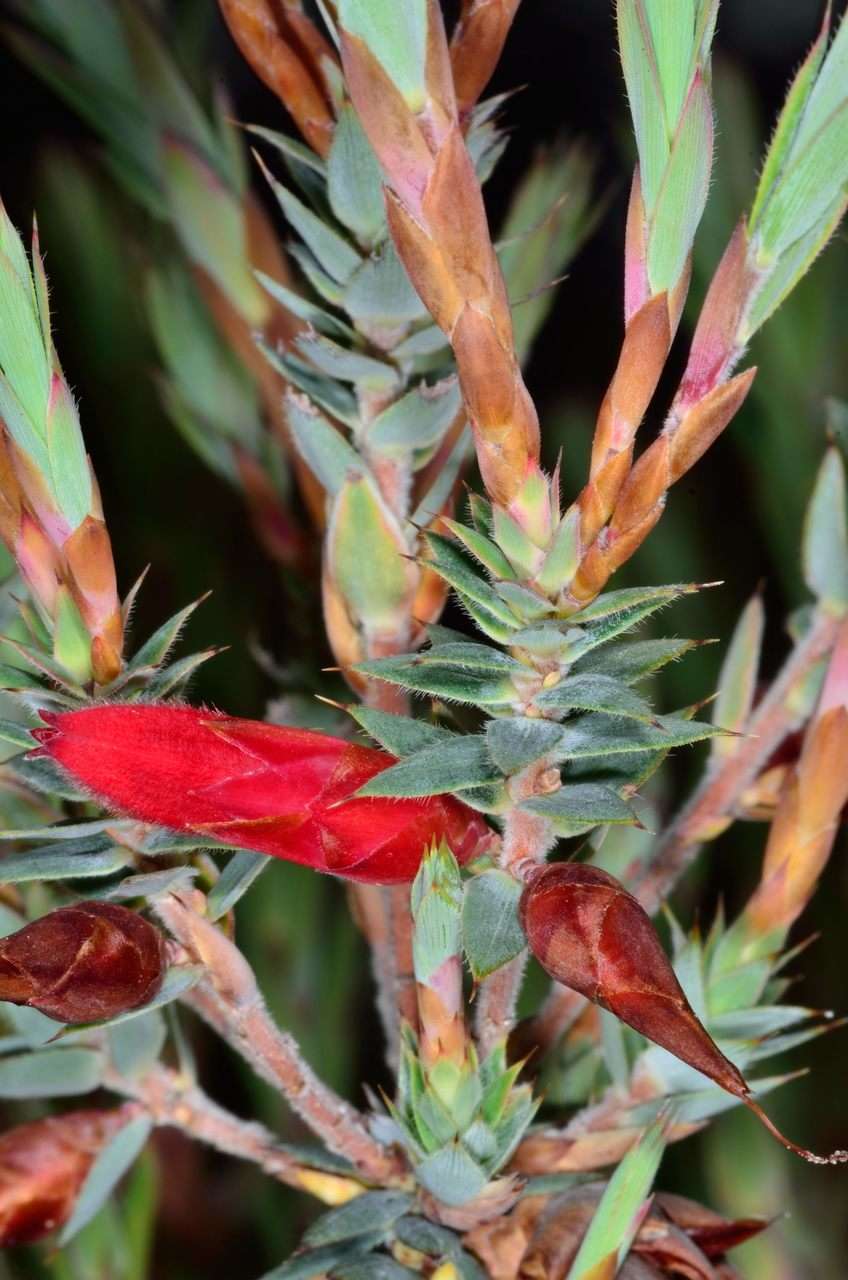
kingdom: Plantae
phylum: Tracheophyta
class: Magnoliopsida
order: Ericales
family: Ericaceae
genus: Stenanthera
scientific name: Stenanthera conostephioides
